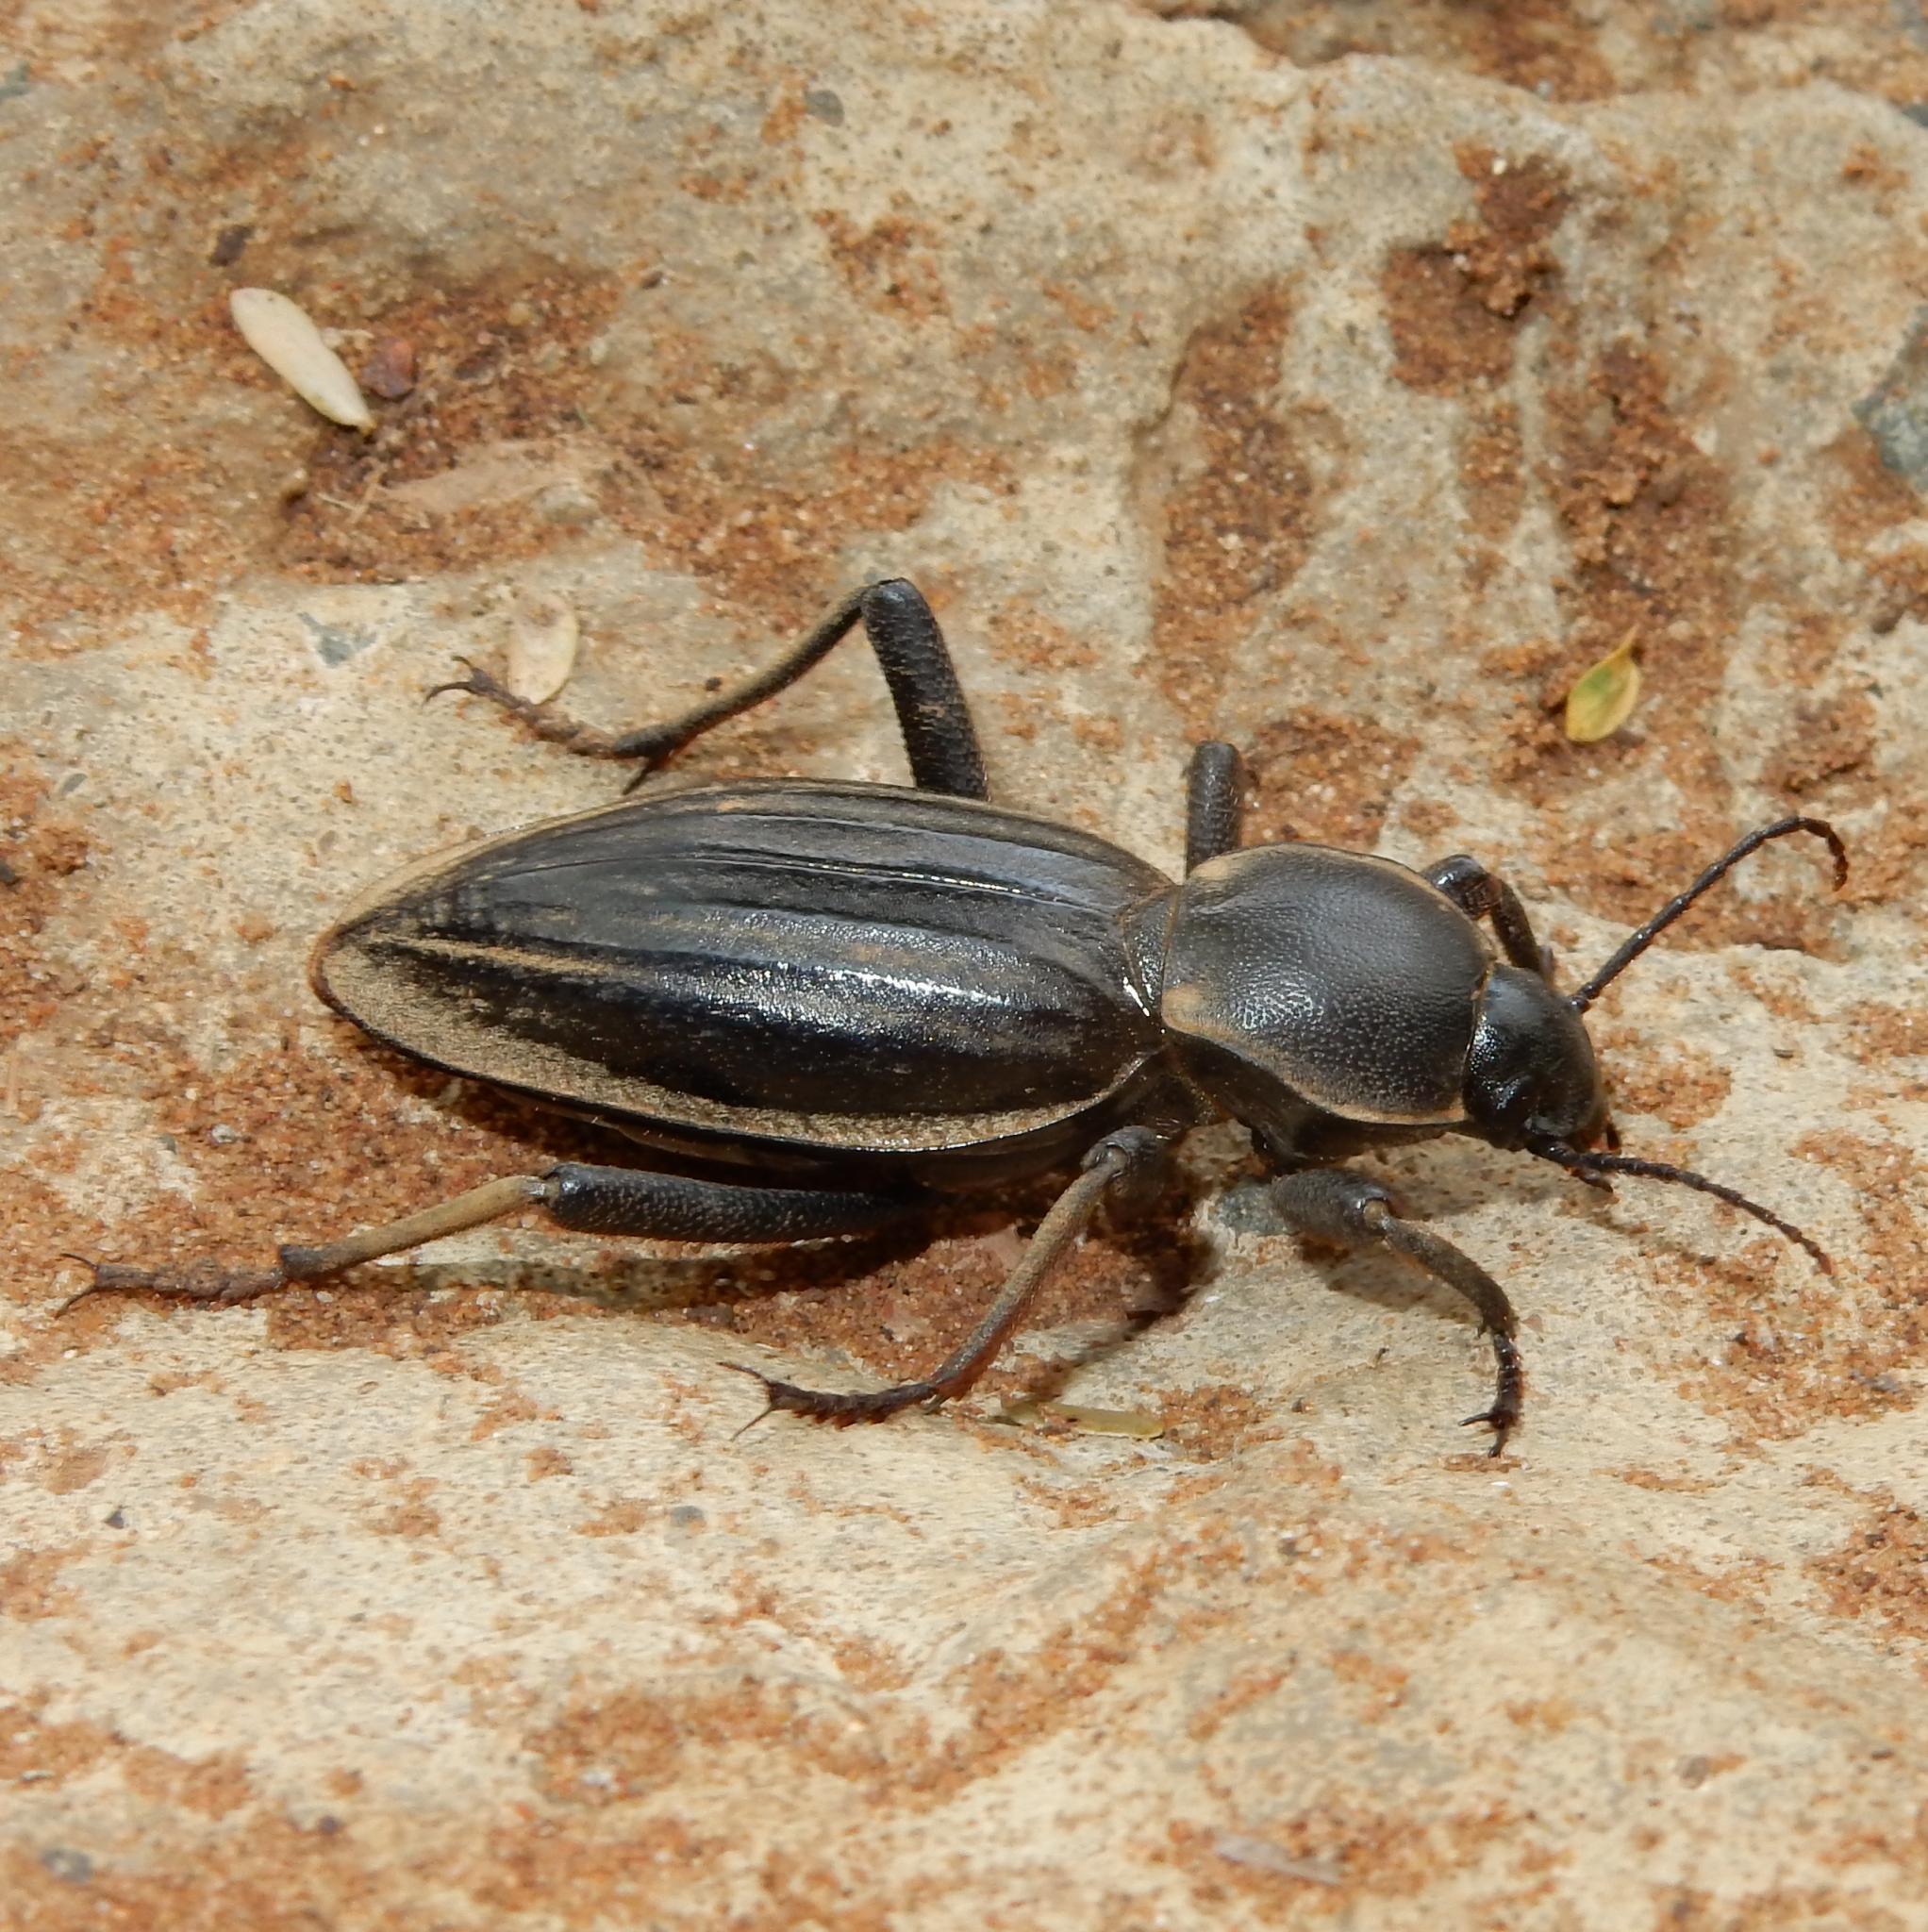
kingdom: Animalia
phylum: Arthropoda
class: Insecta
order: Coleoptera
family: Tenebrionidae
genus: Chiliarchum
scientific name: Chiliarchum
